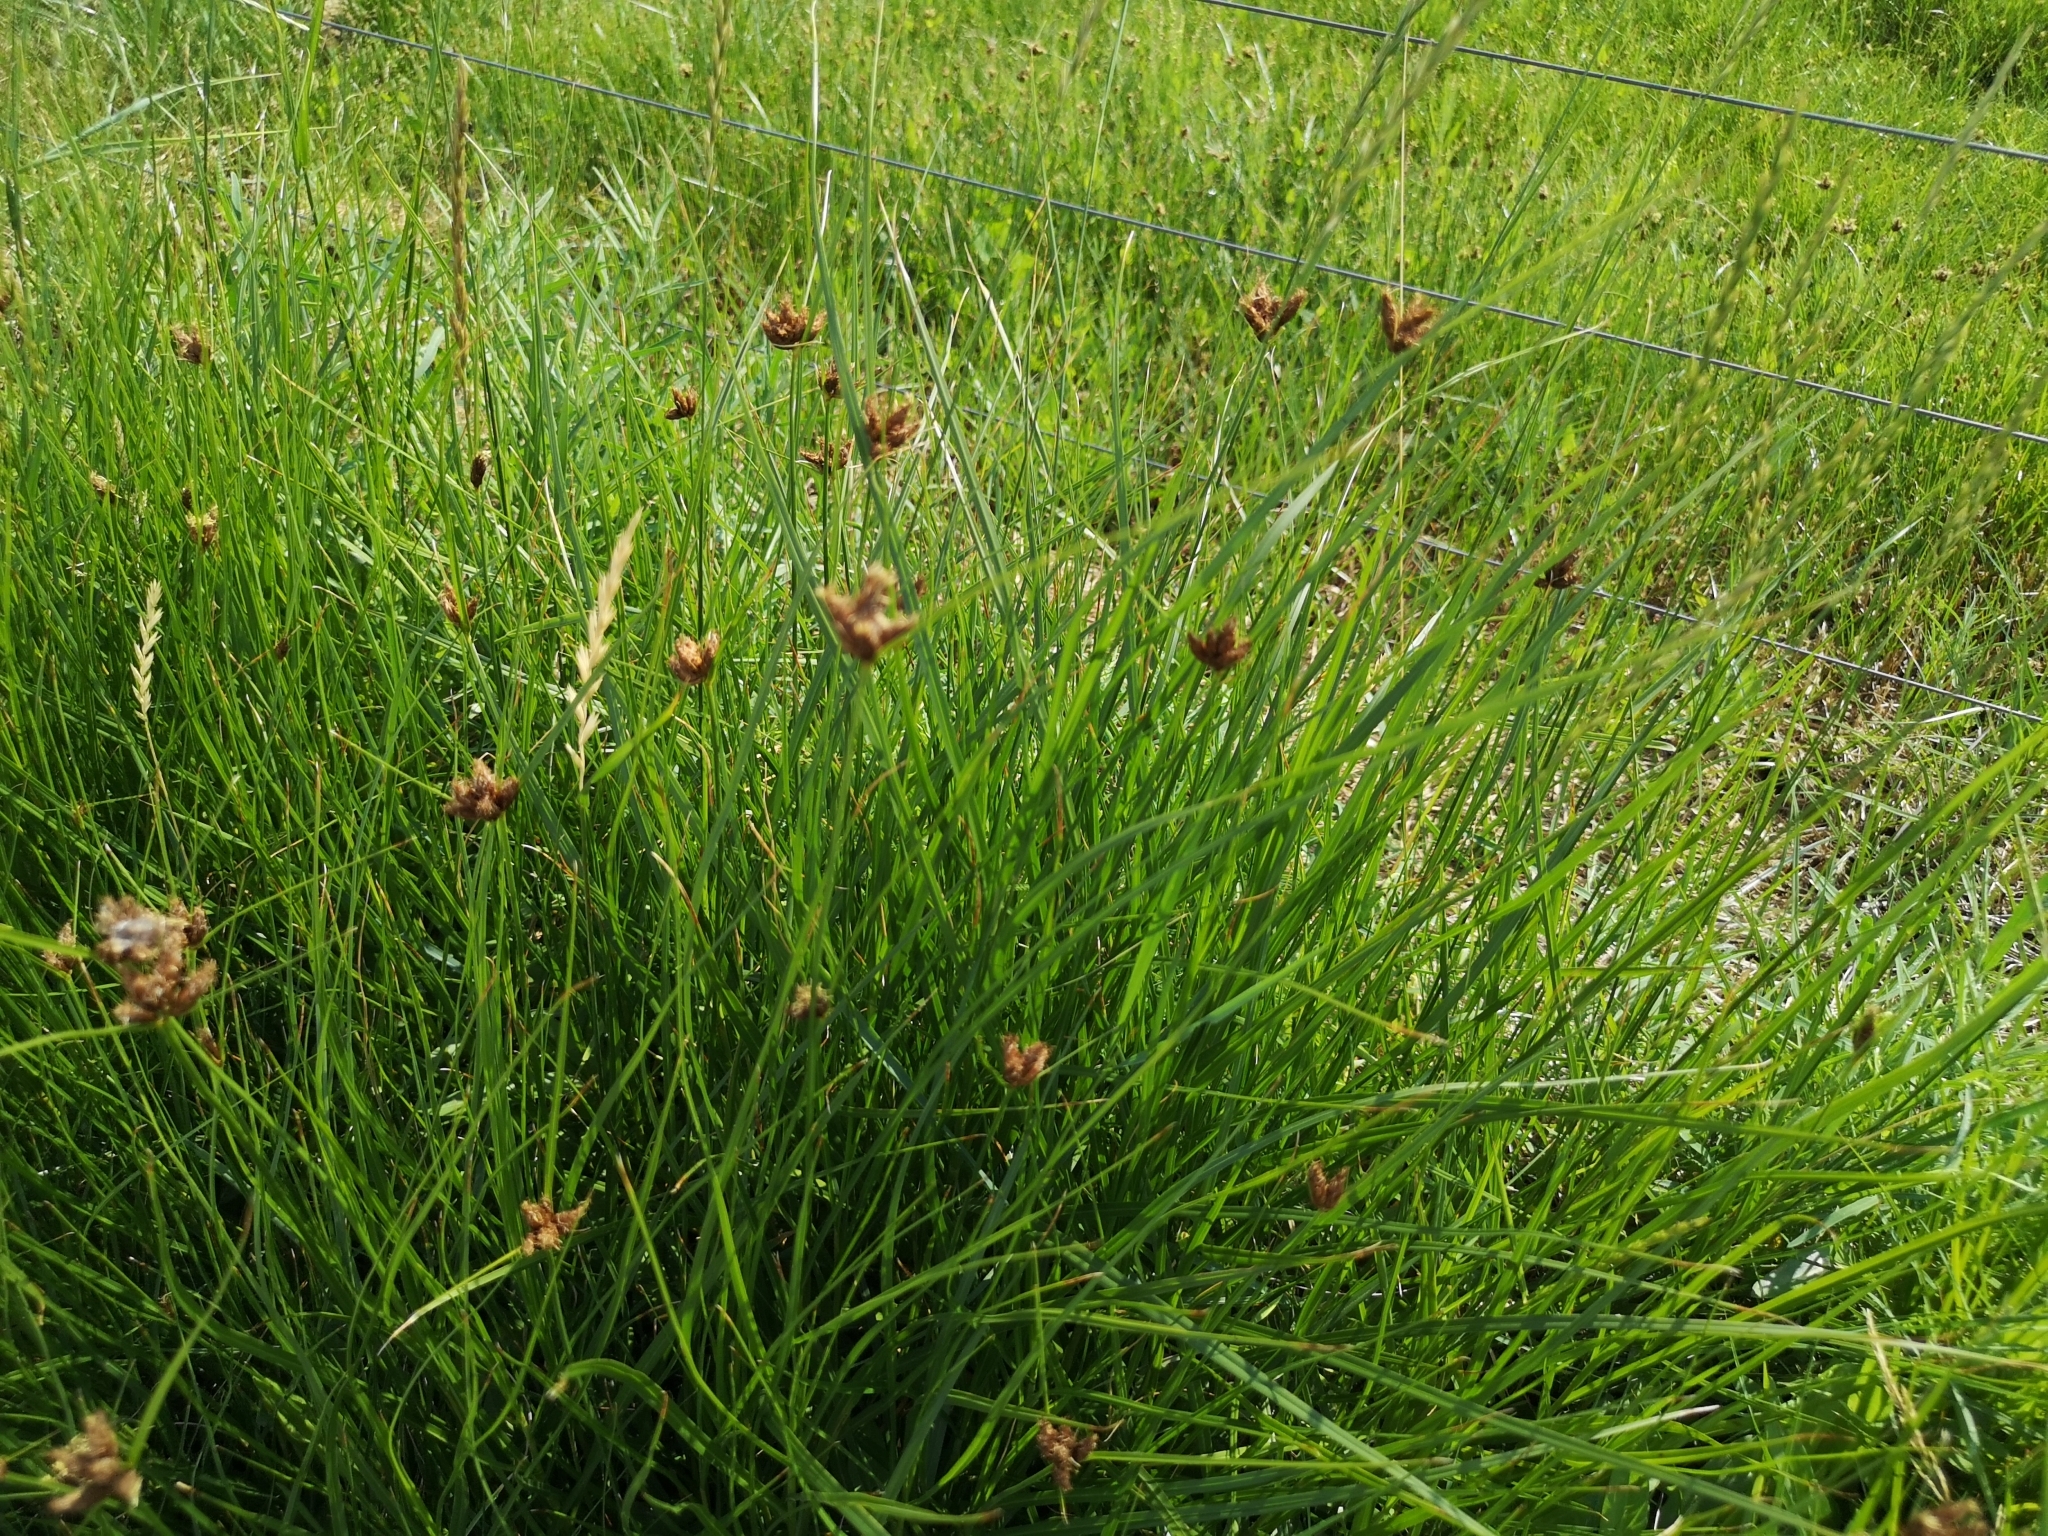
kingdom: Plantae
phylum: Tracheophyta
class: Liliopsida
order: Poales
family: Cyperaceae
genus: Bolboschoenus
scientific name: Bolboschoenus maritimus
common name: Sea club-rush
